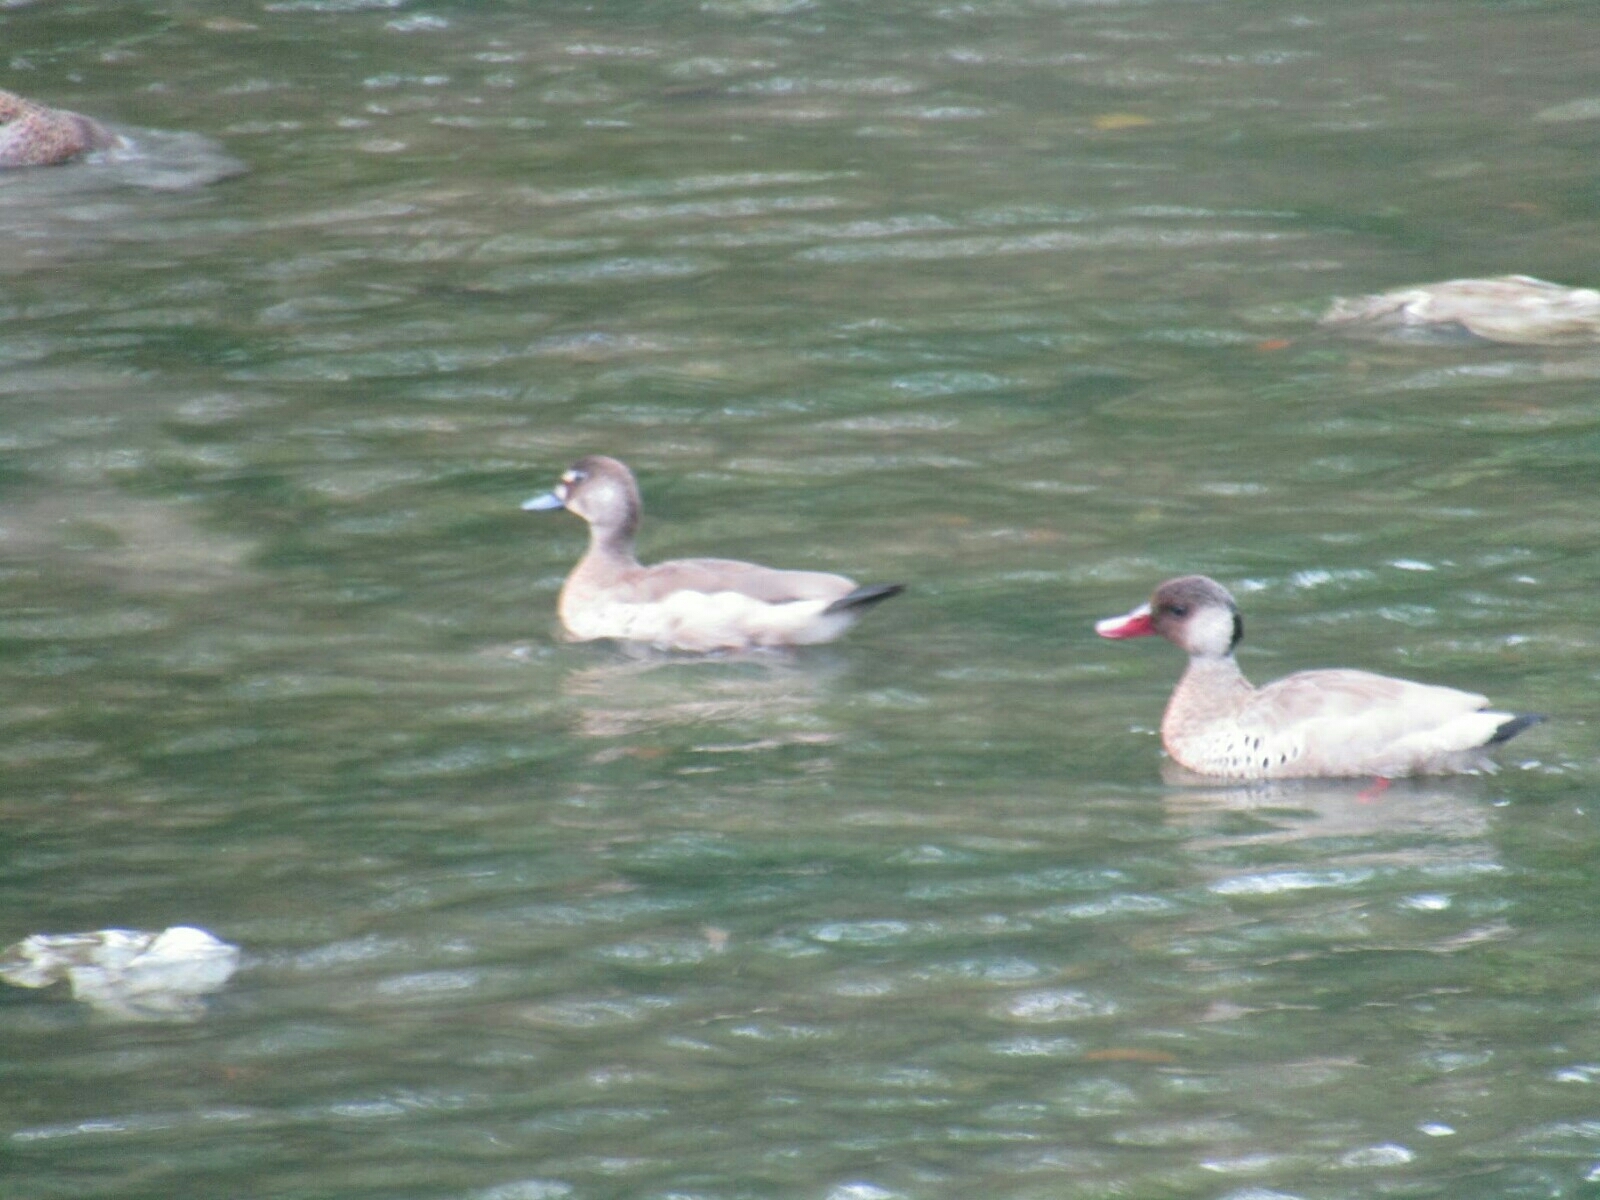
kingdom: Animalia
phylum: Chordata
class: Aves
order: Anseriformes
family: Anatidae
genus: Amazonetta
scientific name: Amazonetta brasiliensis
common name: Brazilian teal
